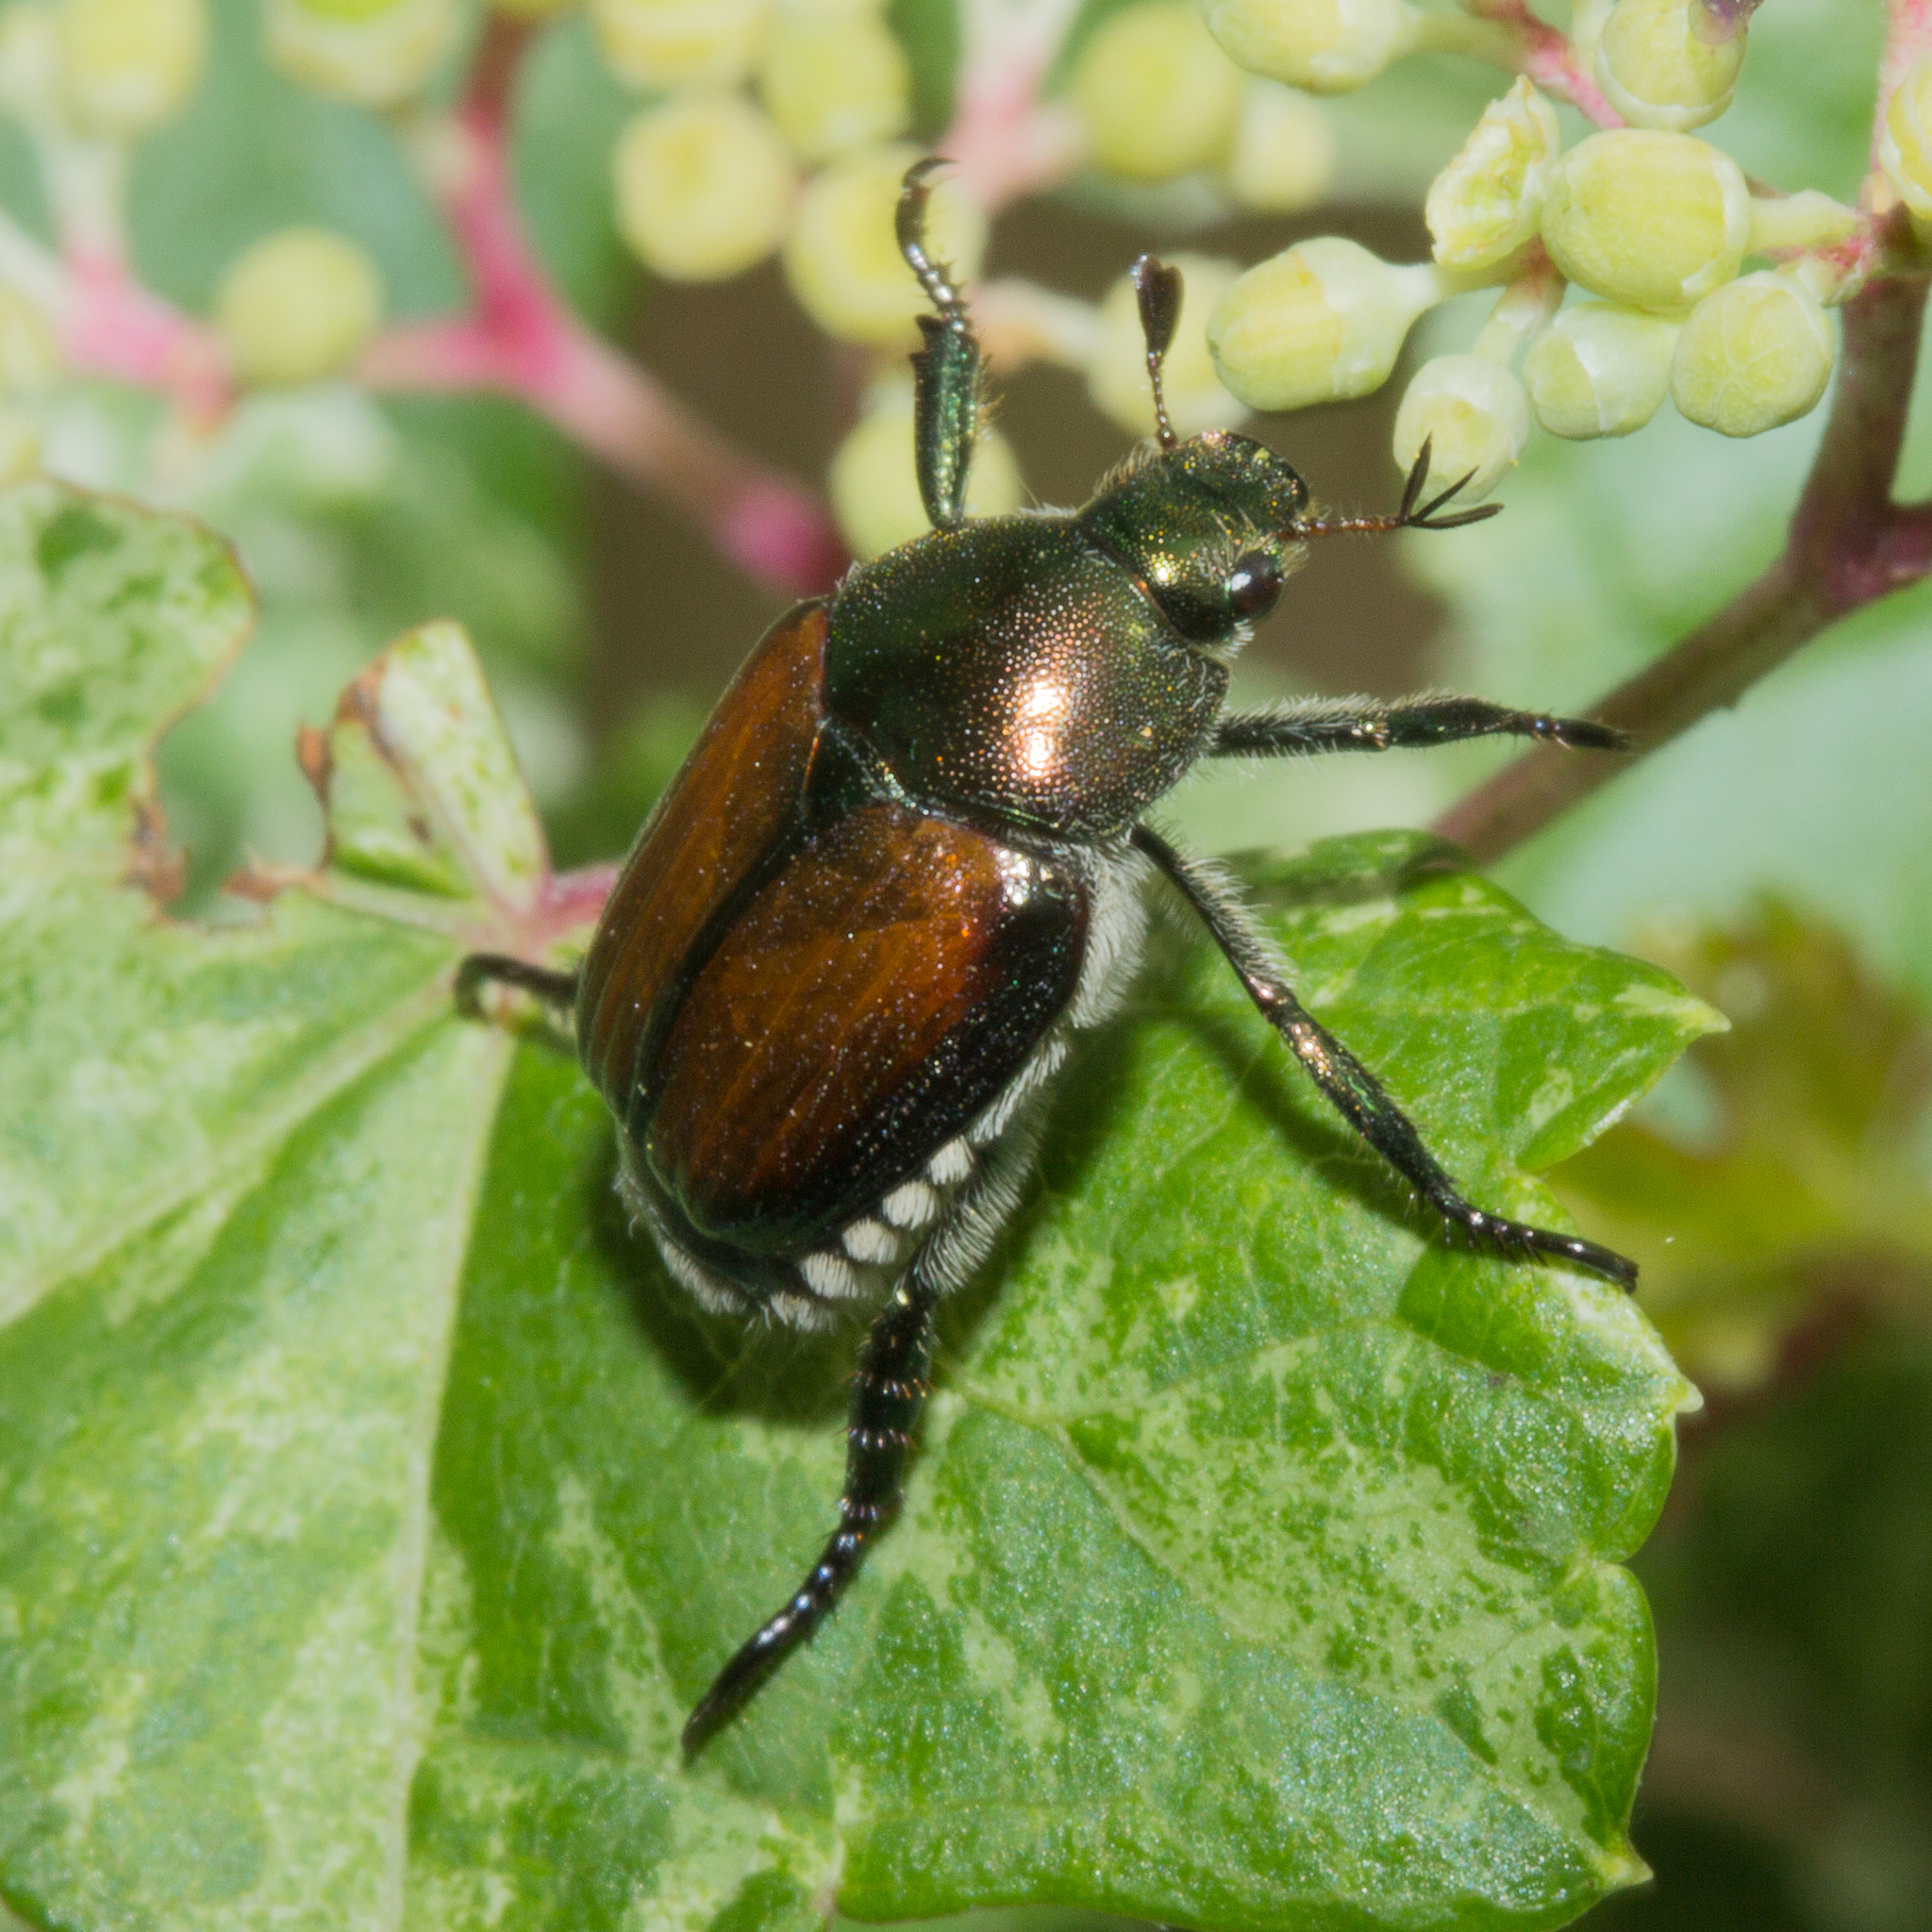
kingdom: Animalia
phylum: Arthropoda
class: Insecta
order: Coleoptera
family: Scarabaeidae
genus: Popillia
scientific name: Popillia japonica
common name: Japanese beetle
